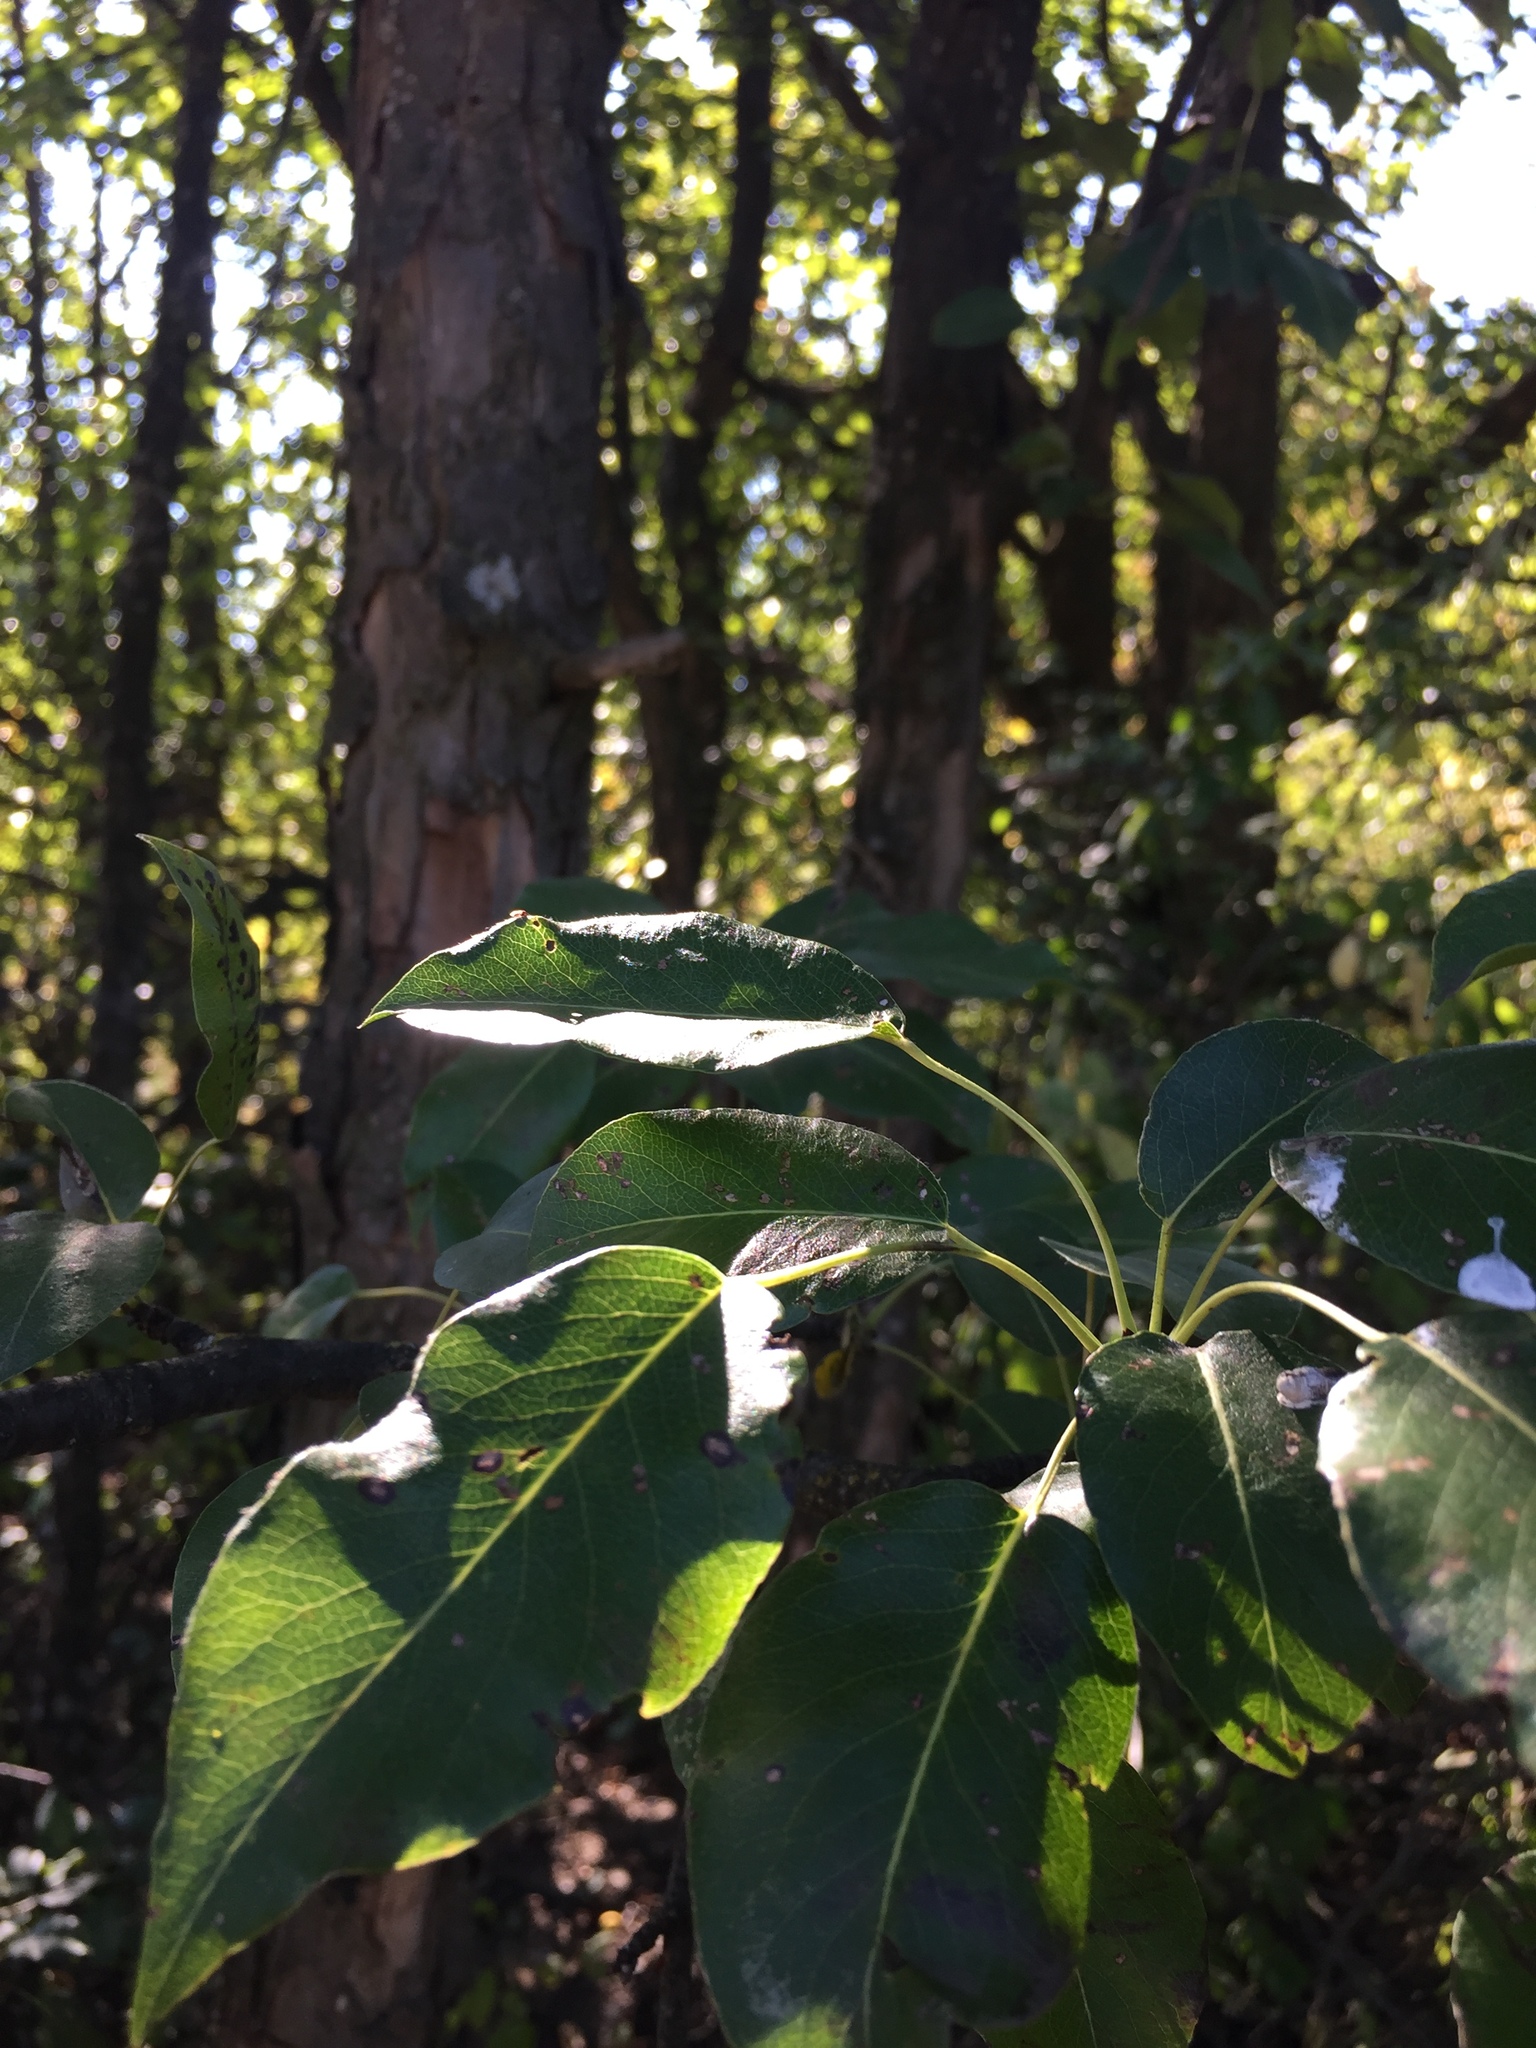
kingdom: Plantae
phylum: Tracheophyta
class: Magnoliopsida
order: Rosales
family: Rosaceae
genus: Pyrus
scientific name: Pyrus communis
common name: Pear
